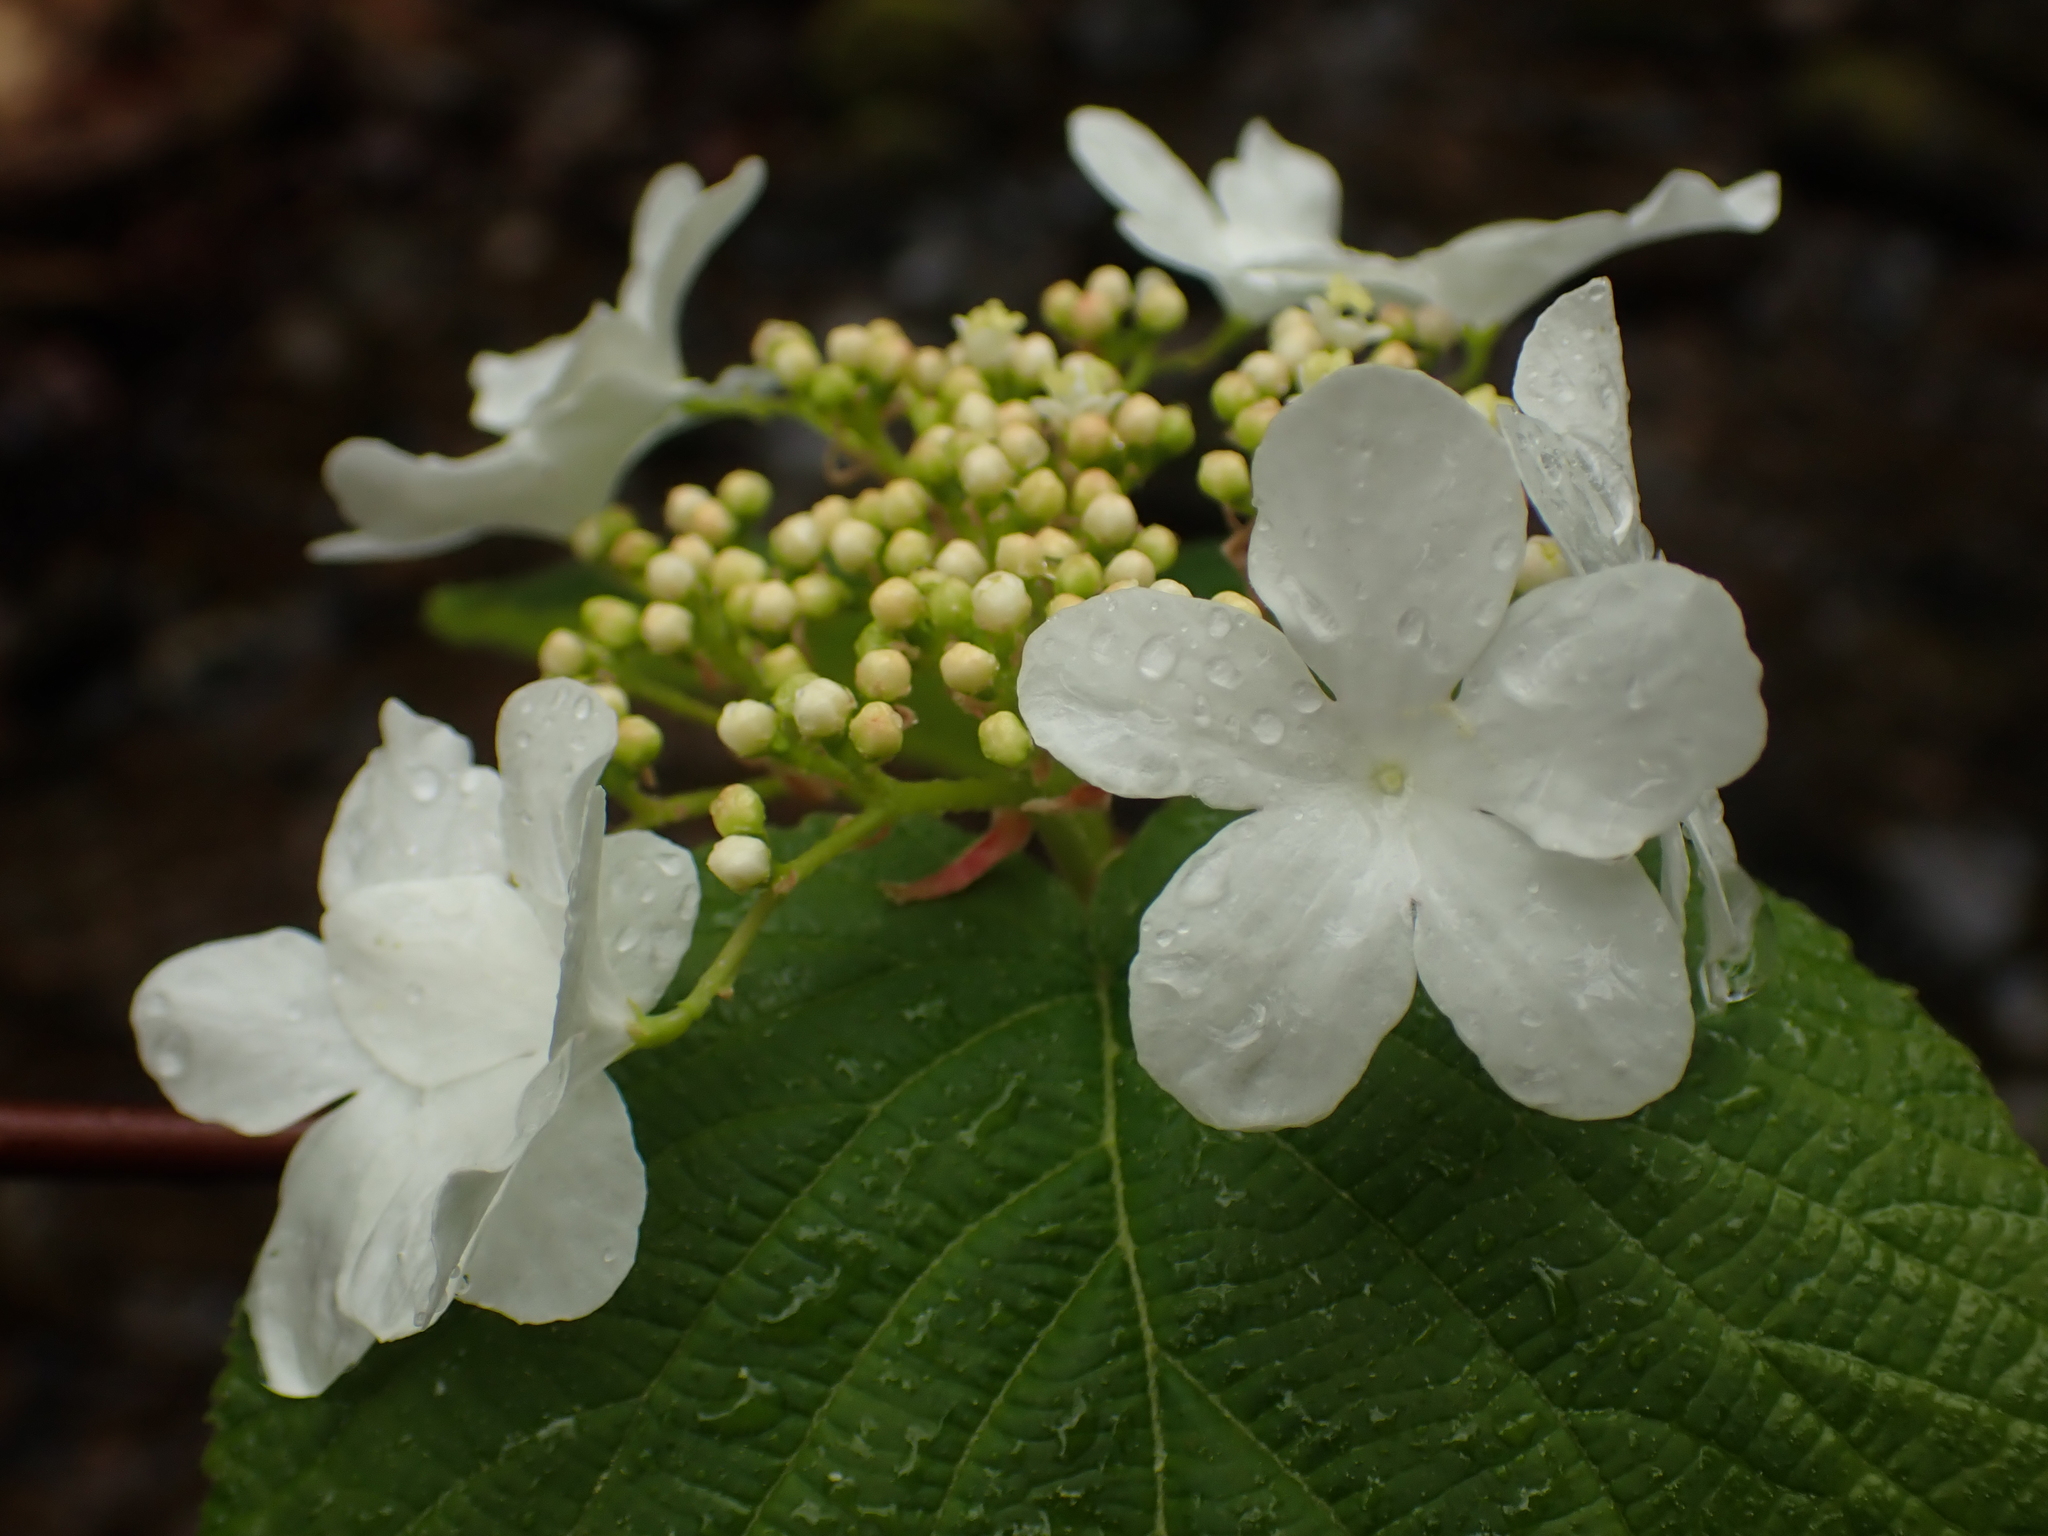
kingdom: Plantae
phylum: Tracheophyta
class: Magnoliopsida
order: Dipsacales
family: Viburnaceae
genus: Viburnum
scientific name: Viburnum lantanoides
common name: Hobblebush
